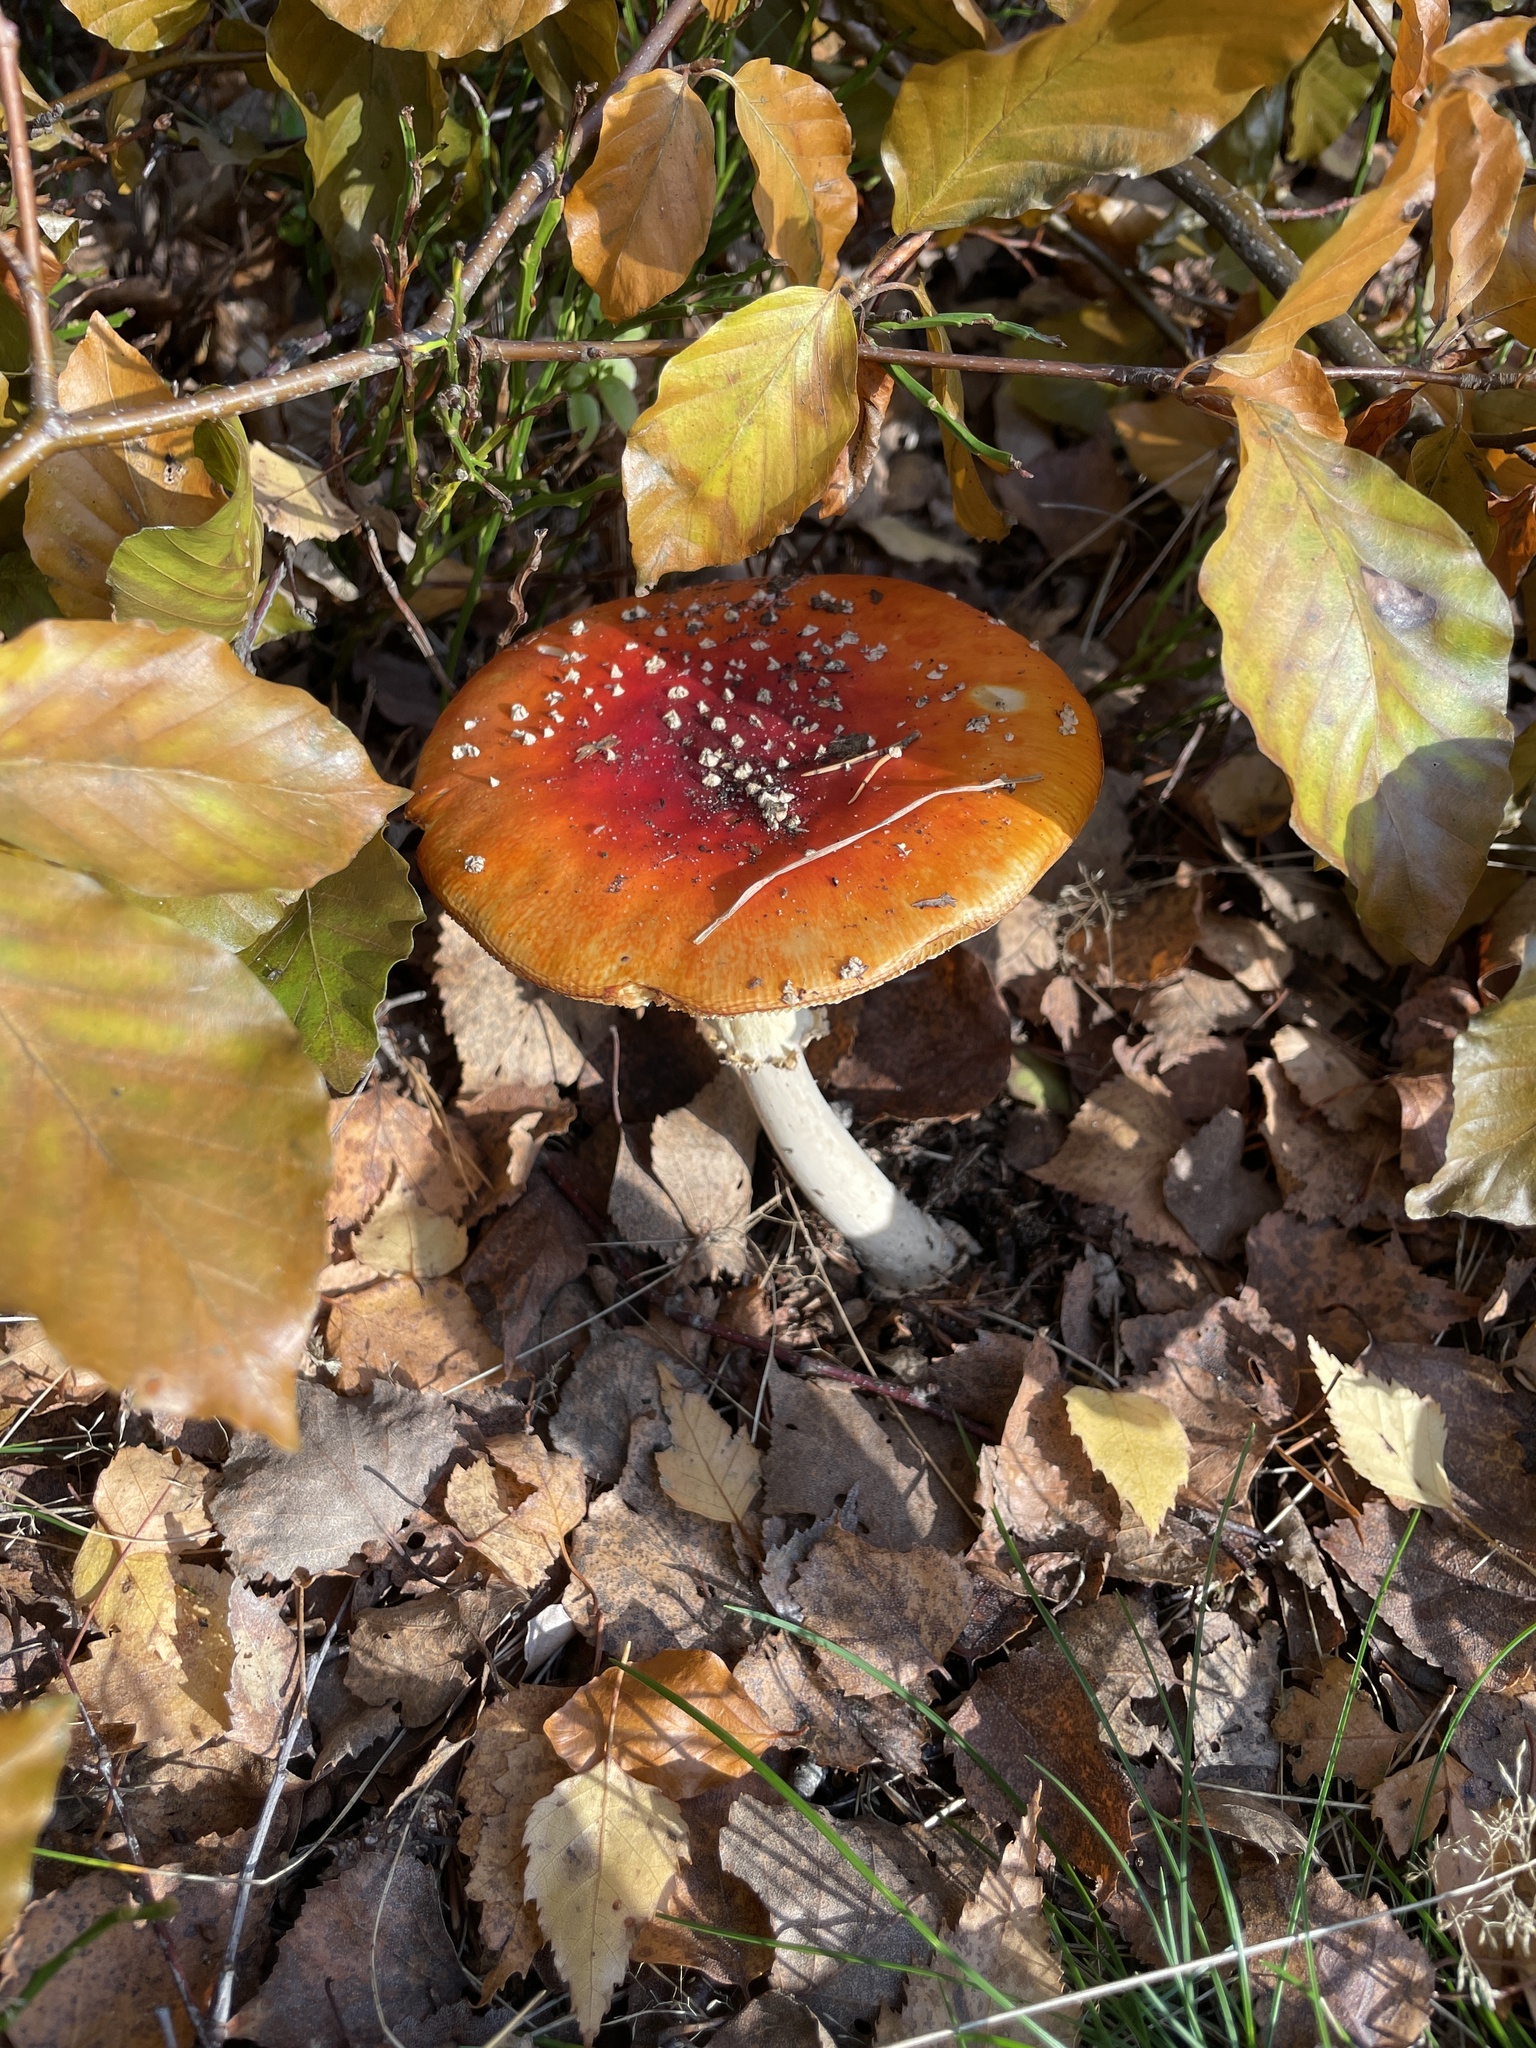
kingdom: Fungi
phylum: Basidiomycota
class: Agaricomycetes
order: Agaricales
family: Amanitaceae
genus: Amanita
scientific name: Amanita muscaria
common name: Fly agaric
